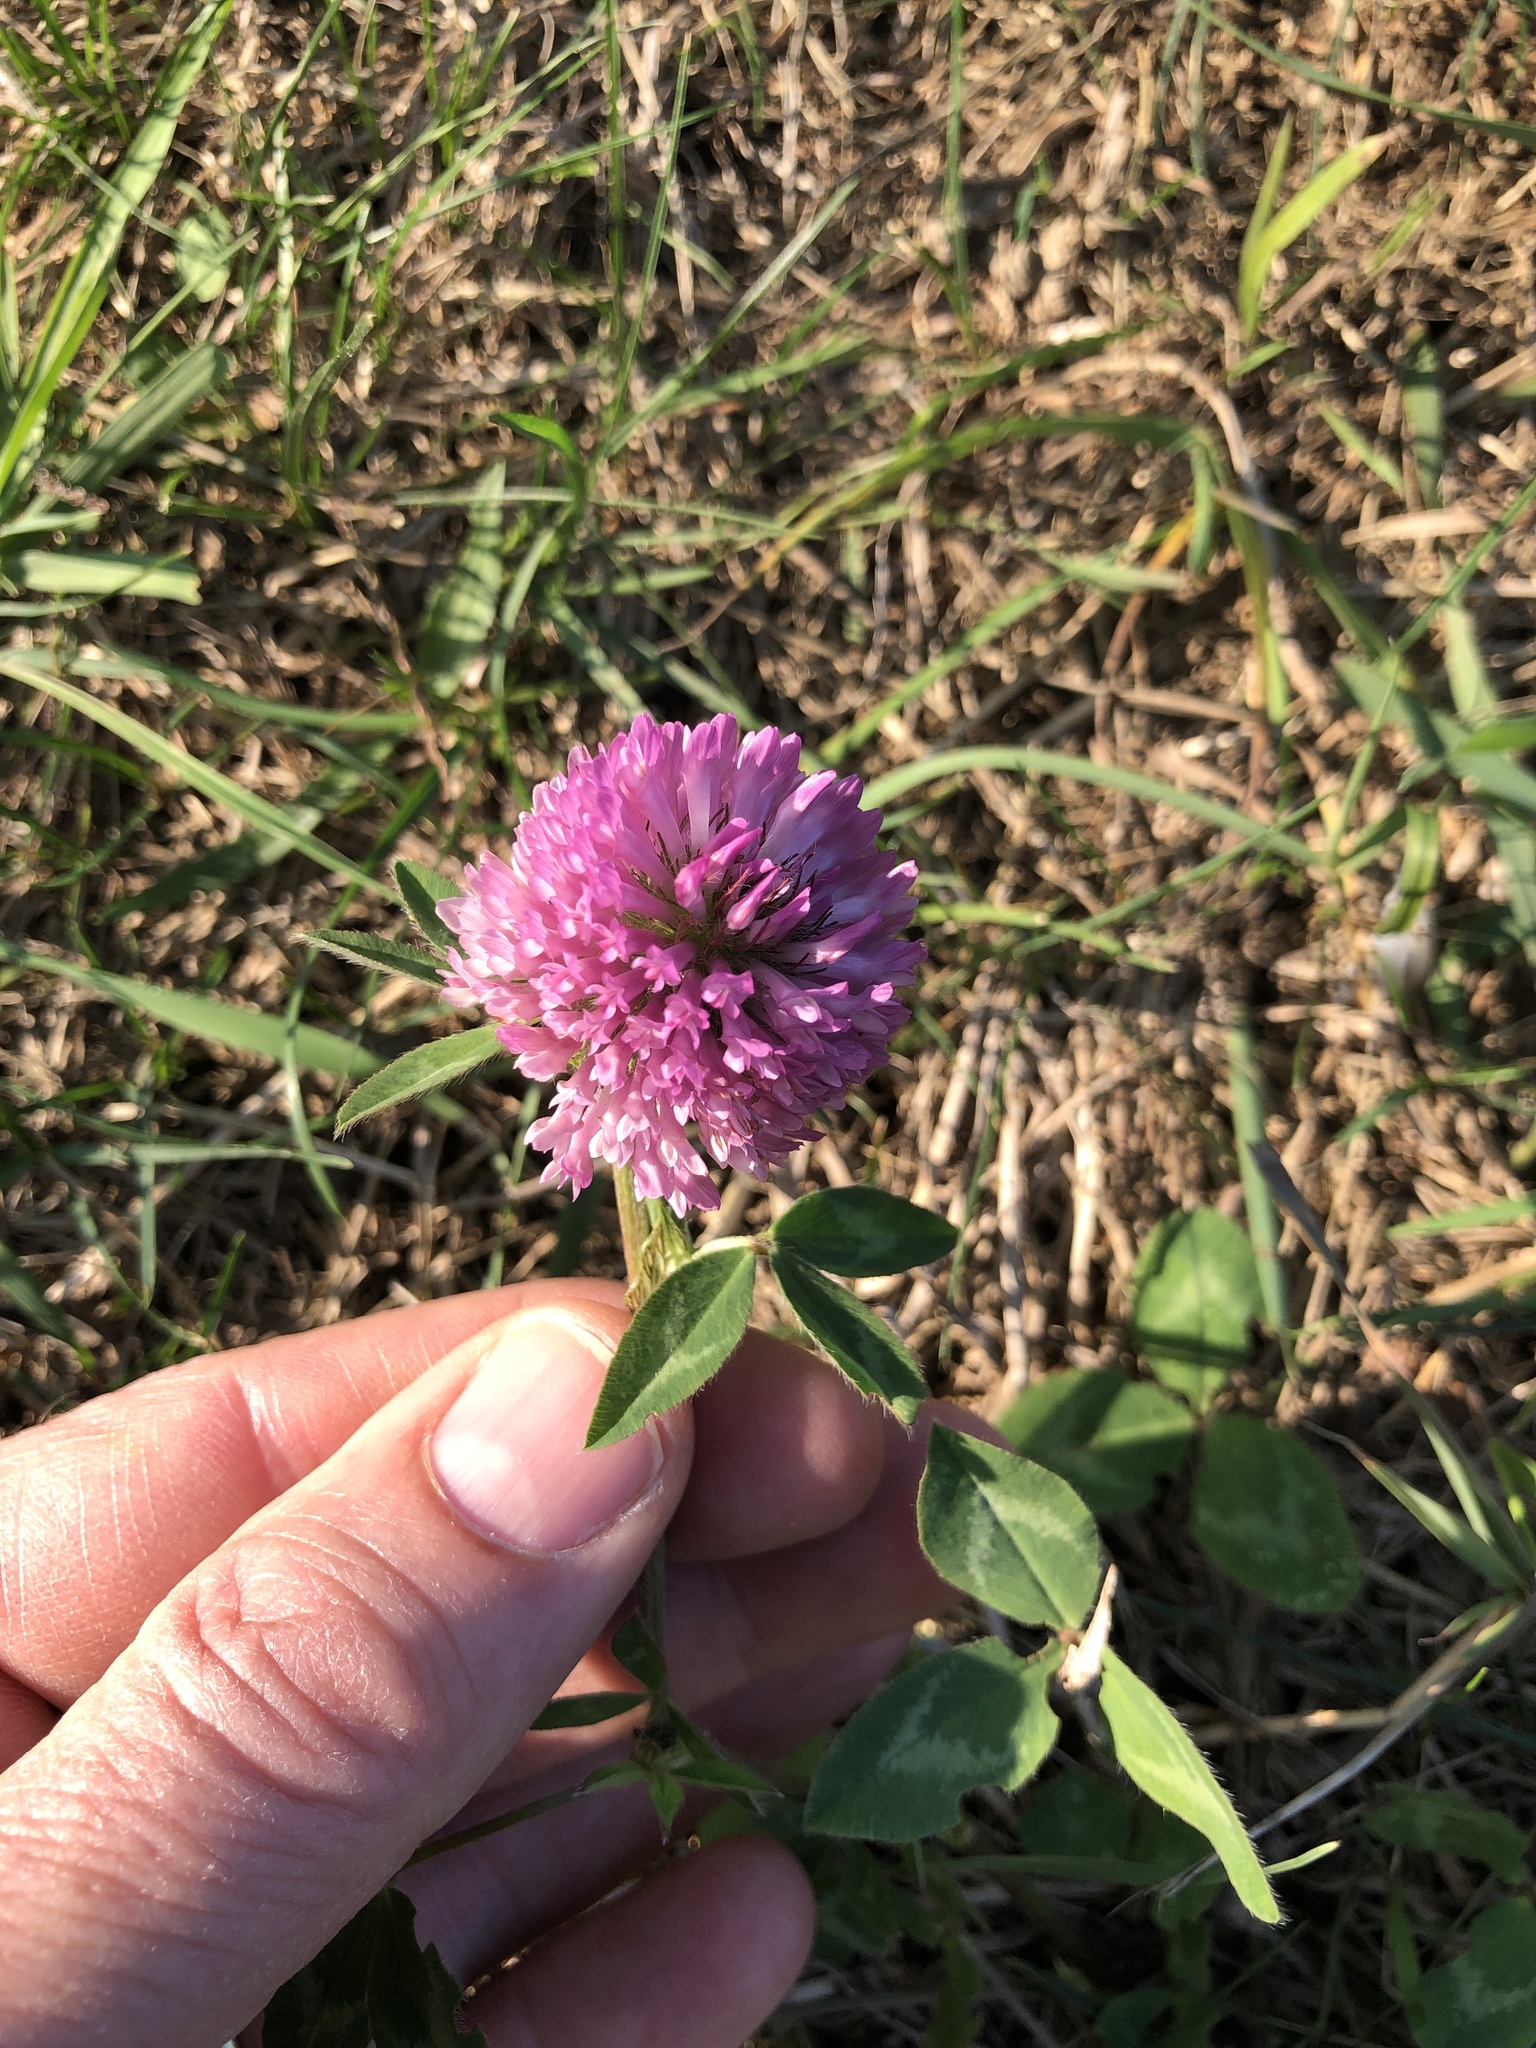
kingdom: Plantae
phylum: Tracheophyta
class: Magnoliopsida
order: Fabales
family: Fabaceae
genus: Trifolium
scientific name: Trifolium pratense
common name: Red clover
